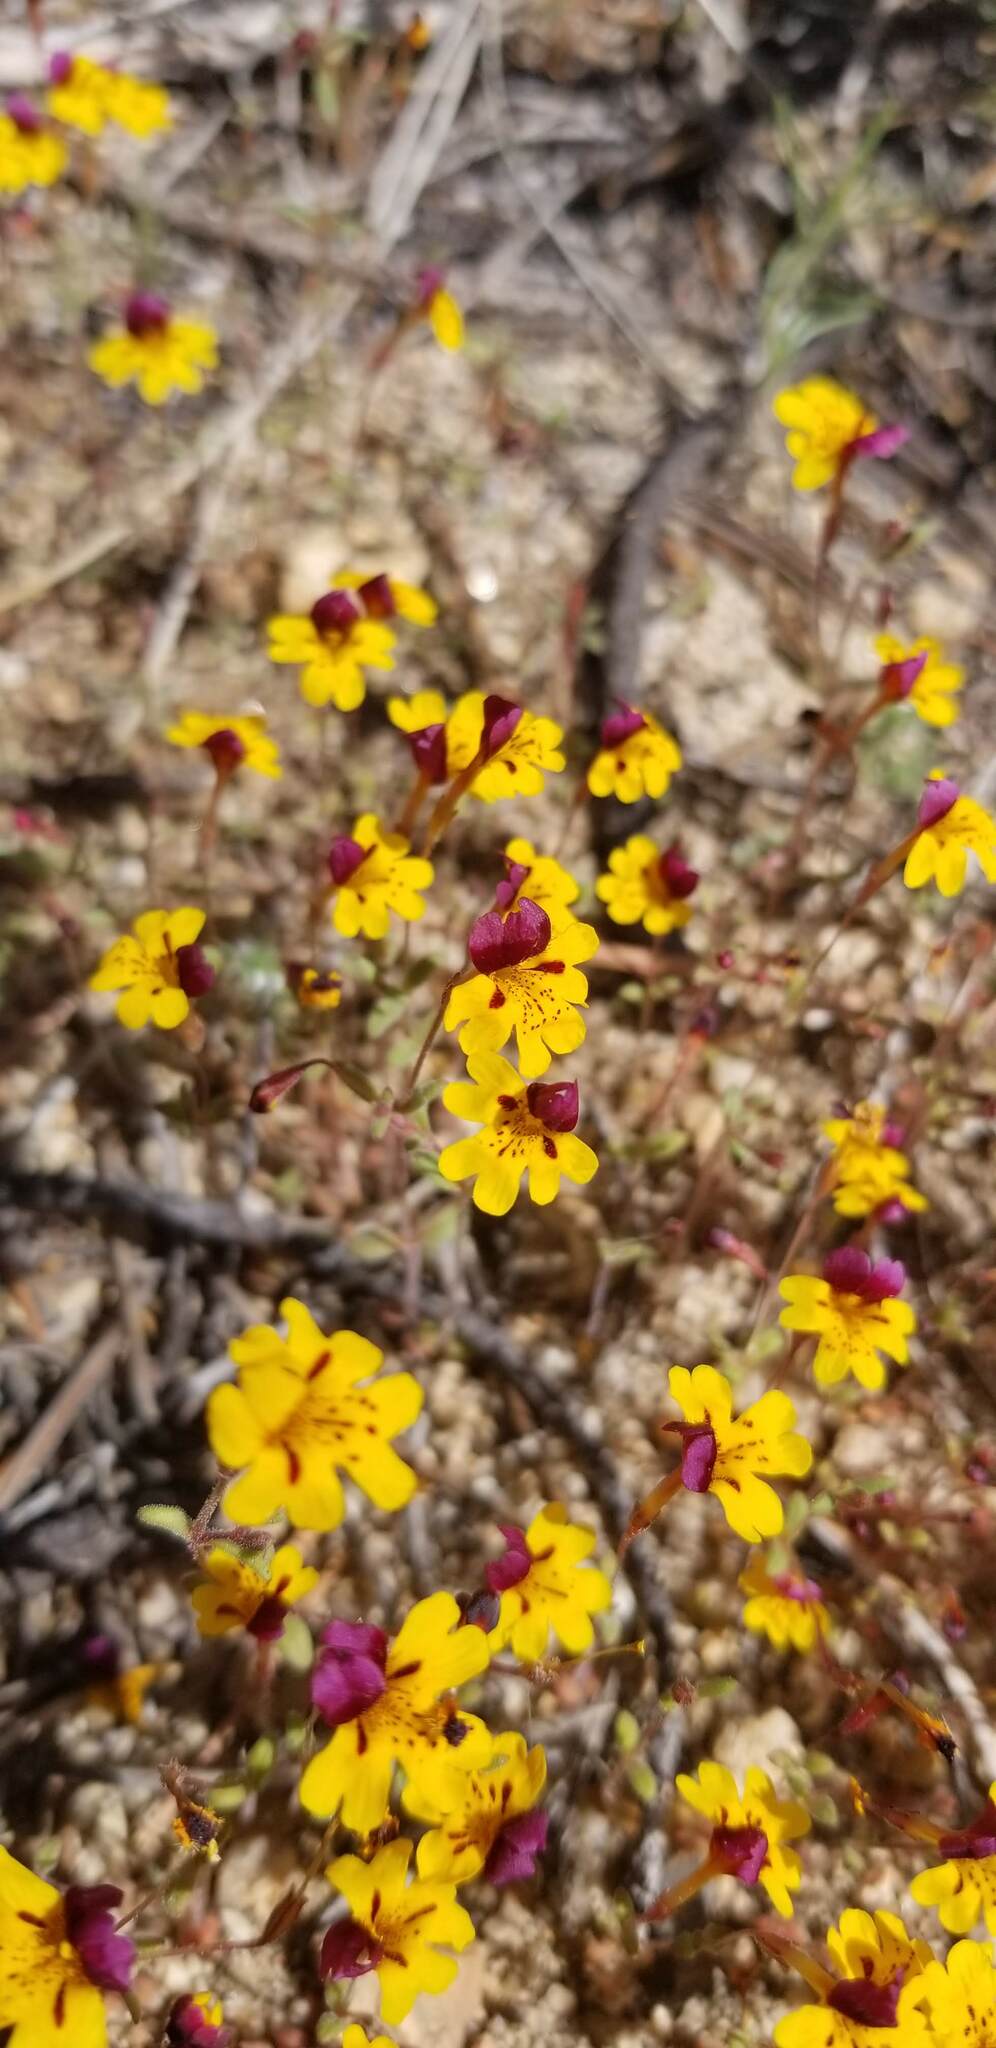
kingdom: Plantae
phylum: Tracheophyta
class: Magnoliopsida
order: Lamiales
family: Phrymaceae
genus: Erythranthe
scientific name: Erythranthe barbata
